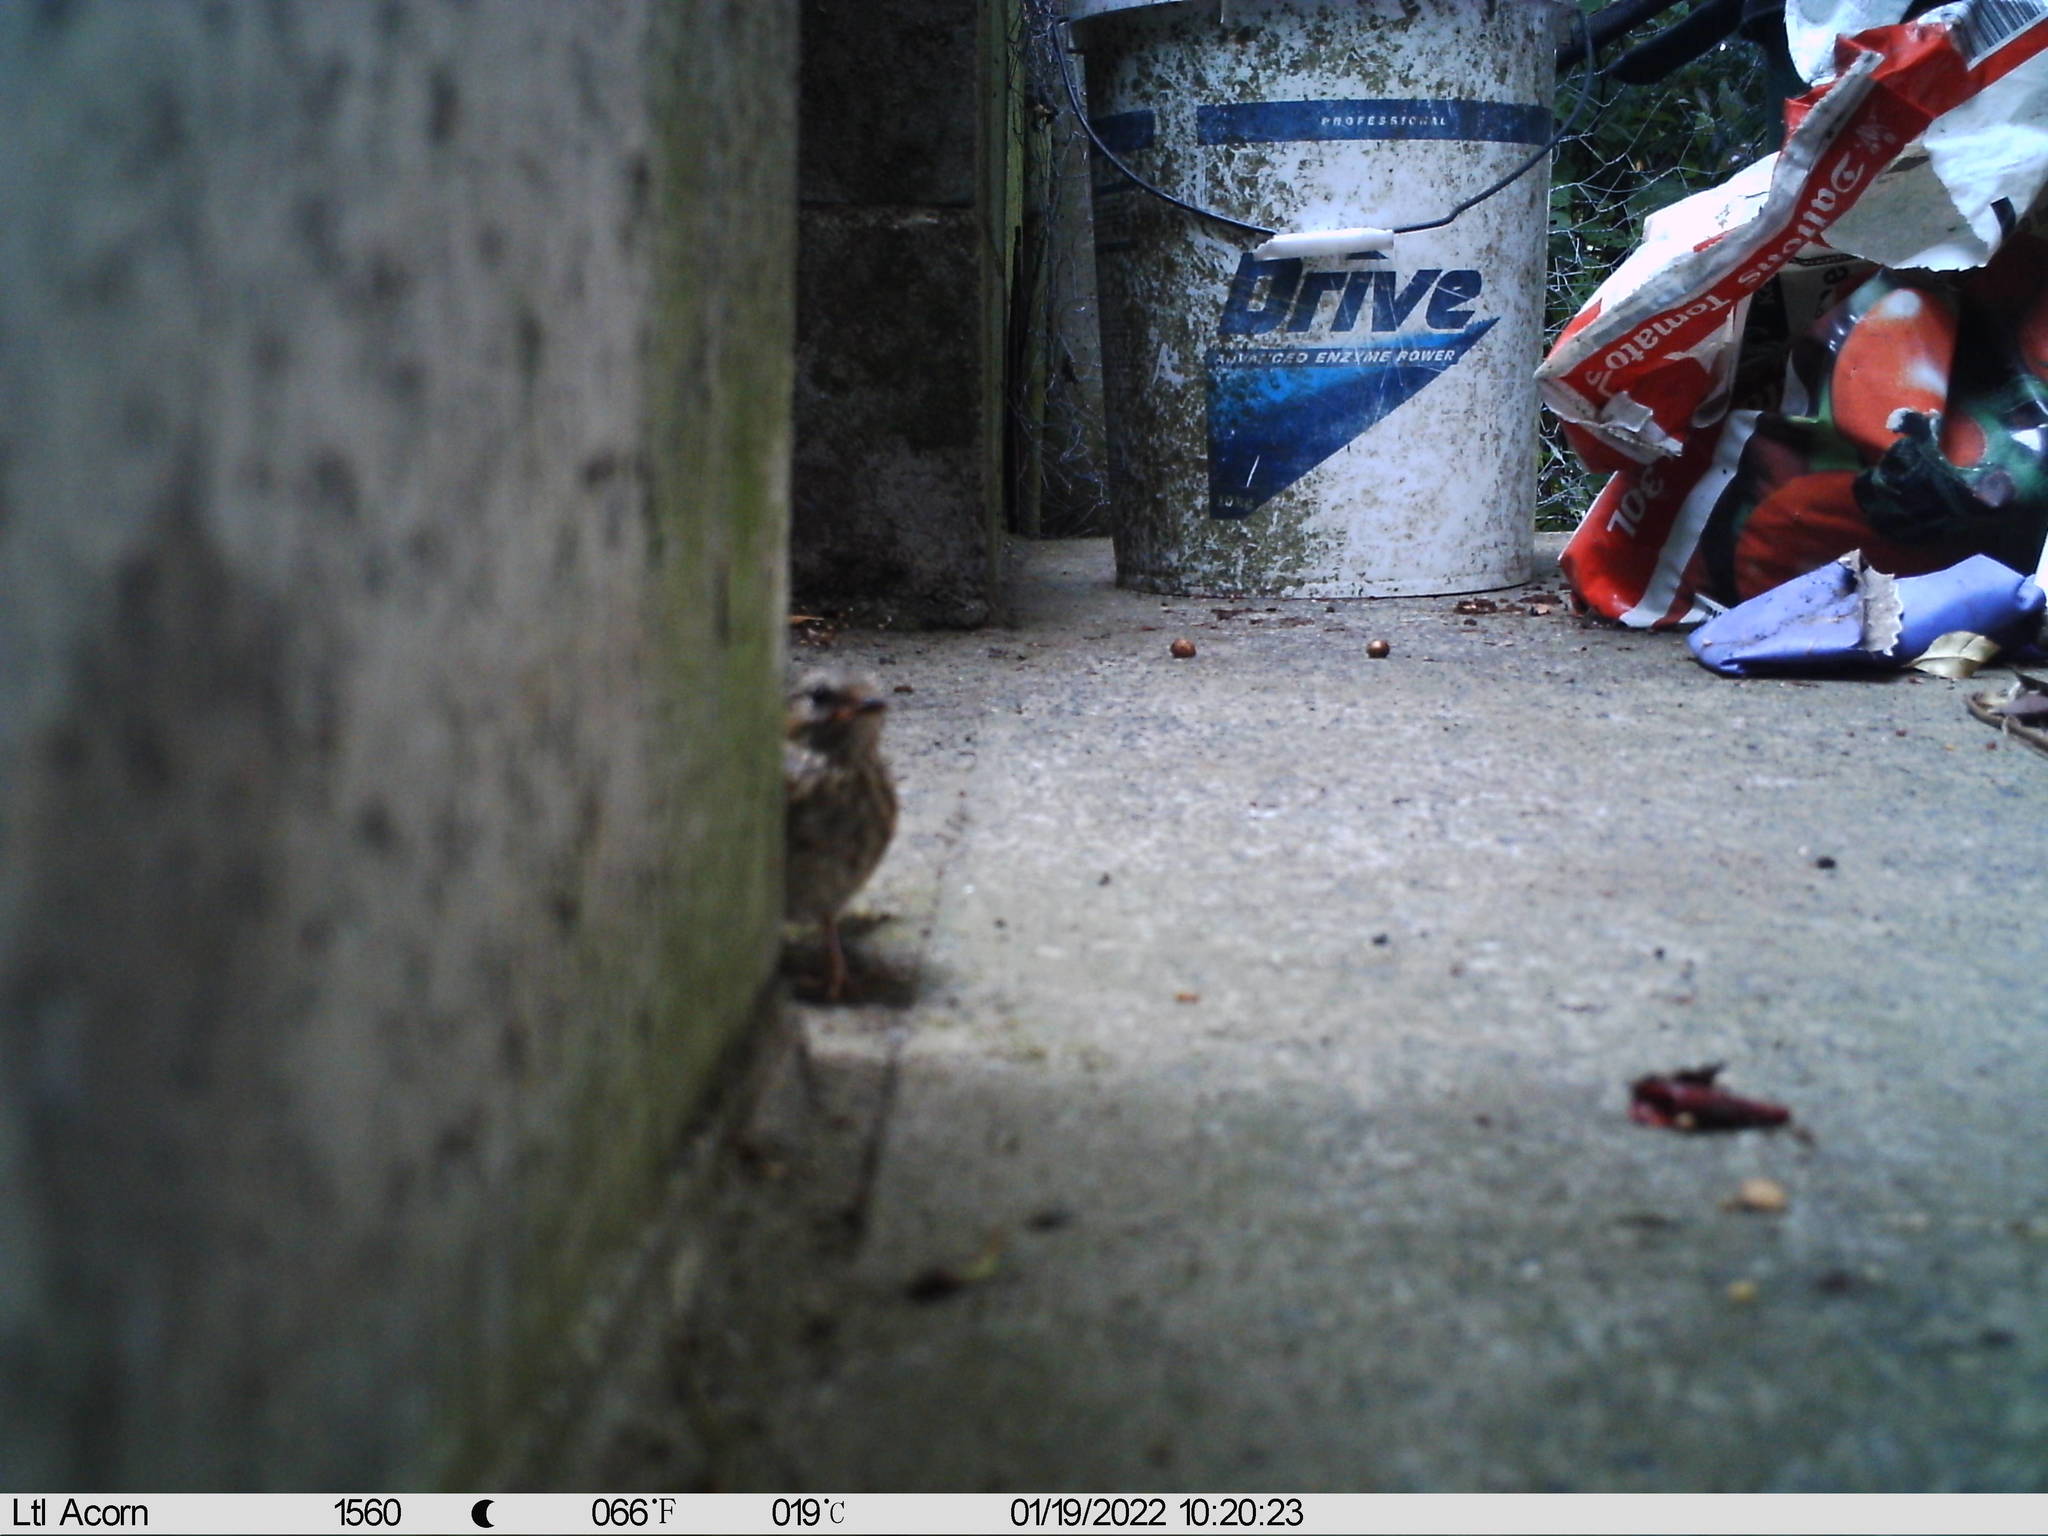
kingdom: Animalia
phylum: Chordata
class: Aves
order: Passeriformes
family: Prunellidae
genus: Prunella
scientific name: Prunella modularis
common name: Dunnock
